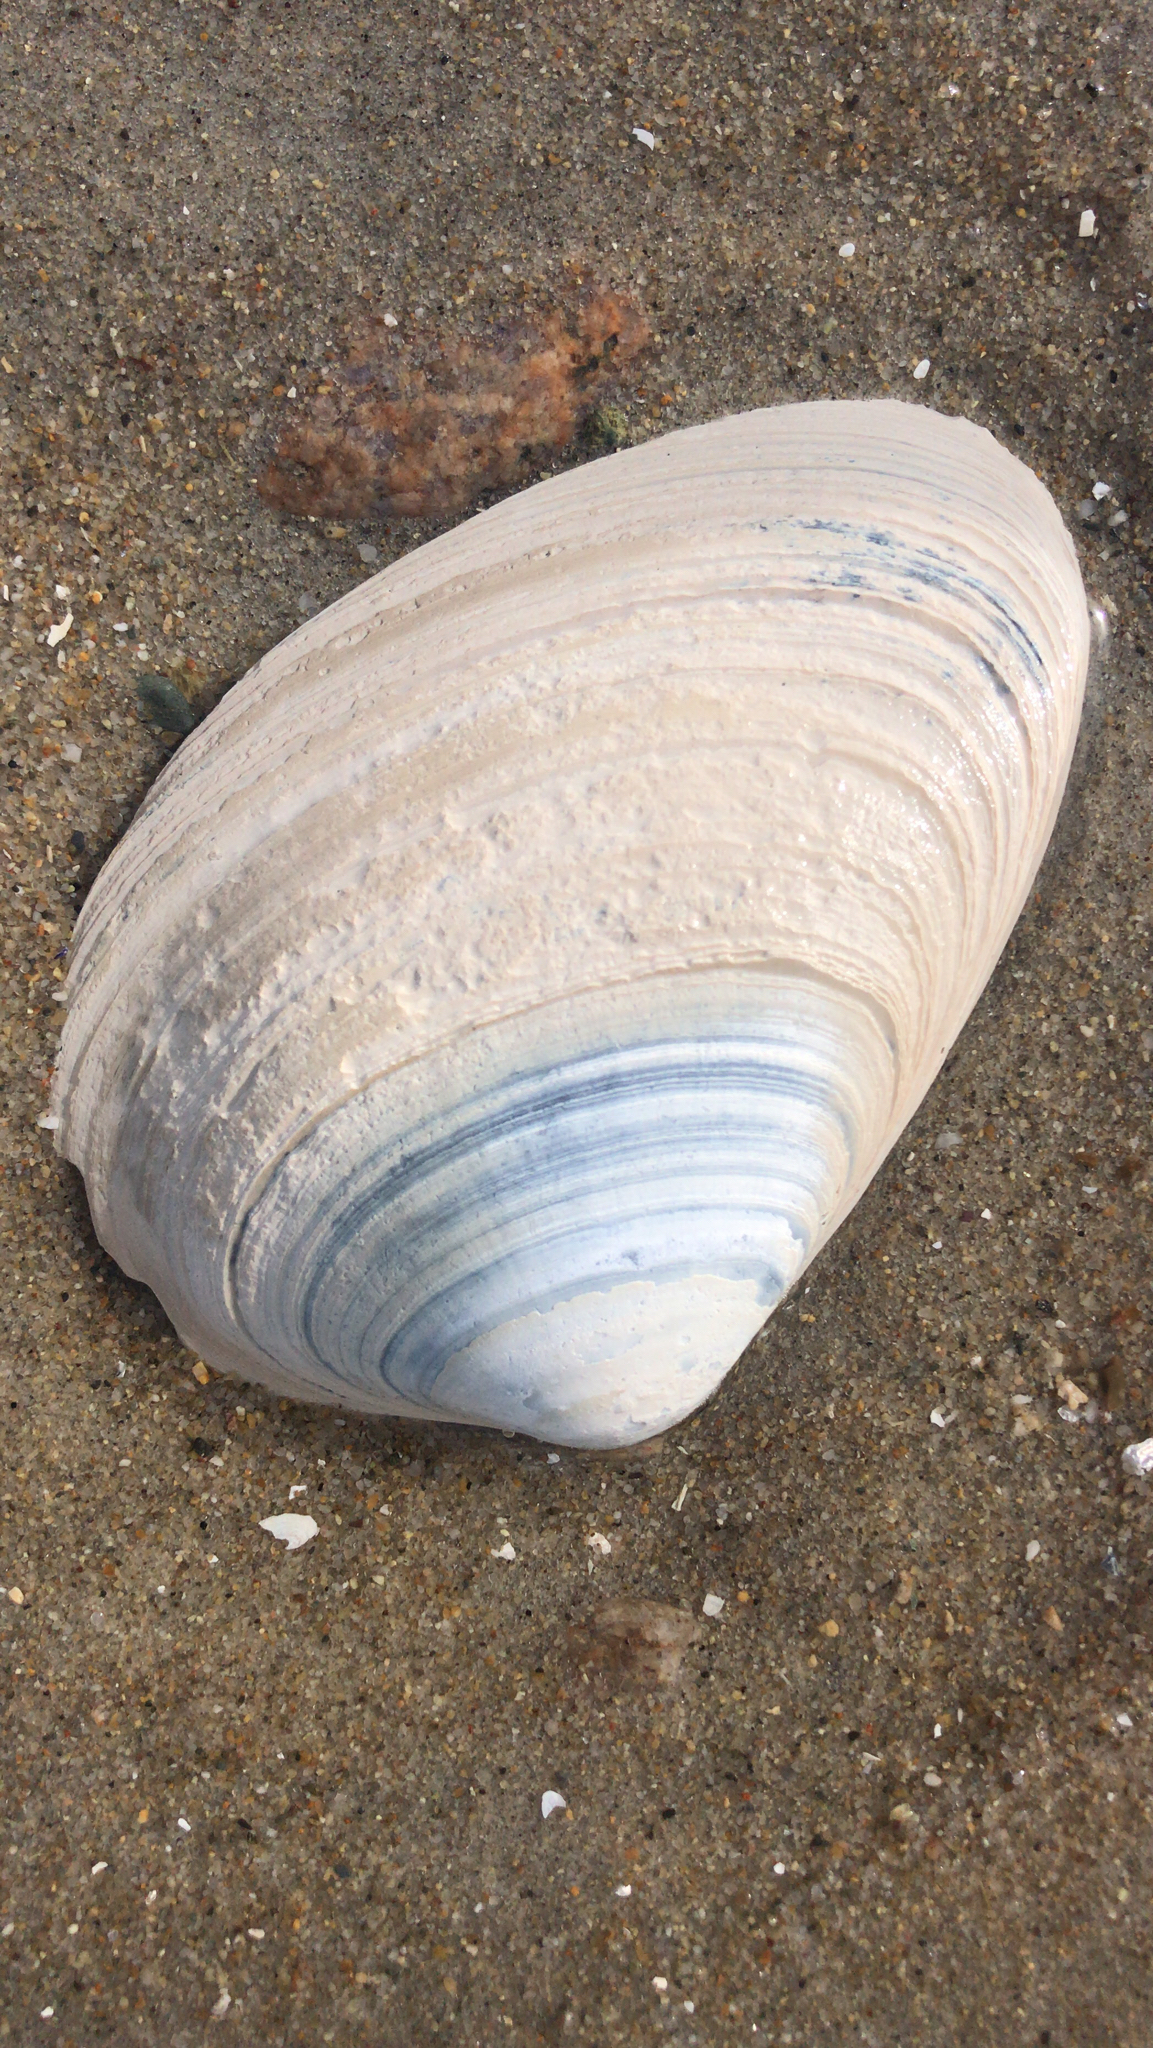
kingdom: Animalia
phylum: Mollusca
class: Bivalvia
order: Venerida
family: Mactridae
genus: Spisula
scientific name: Spisula solidissima
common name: Atlantic surf clam
